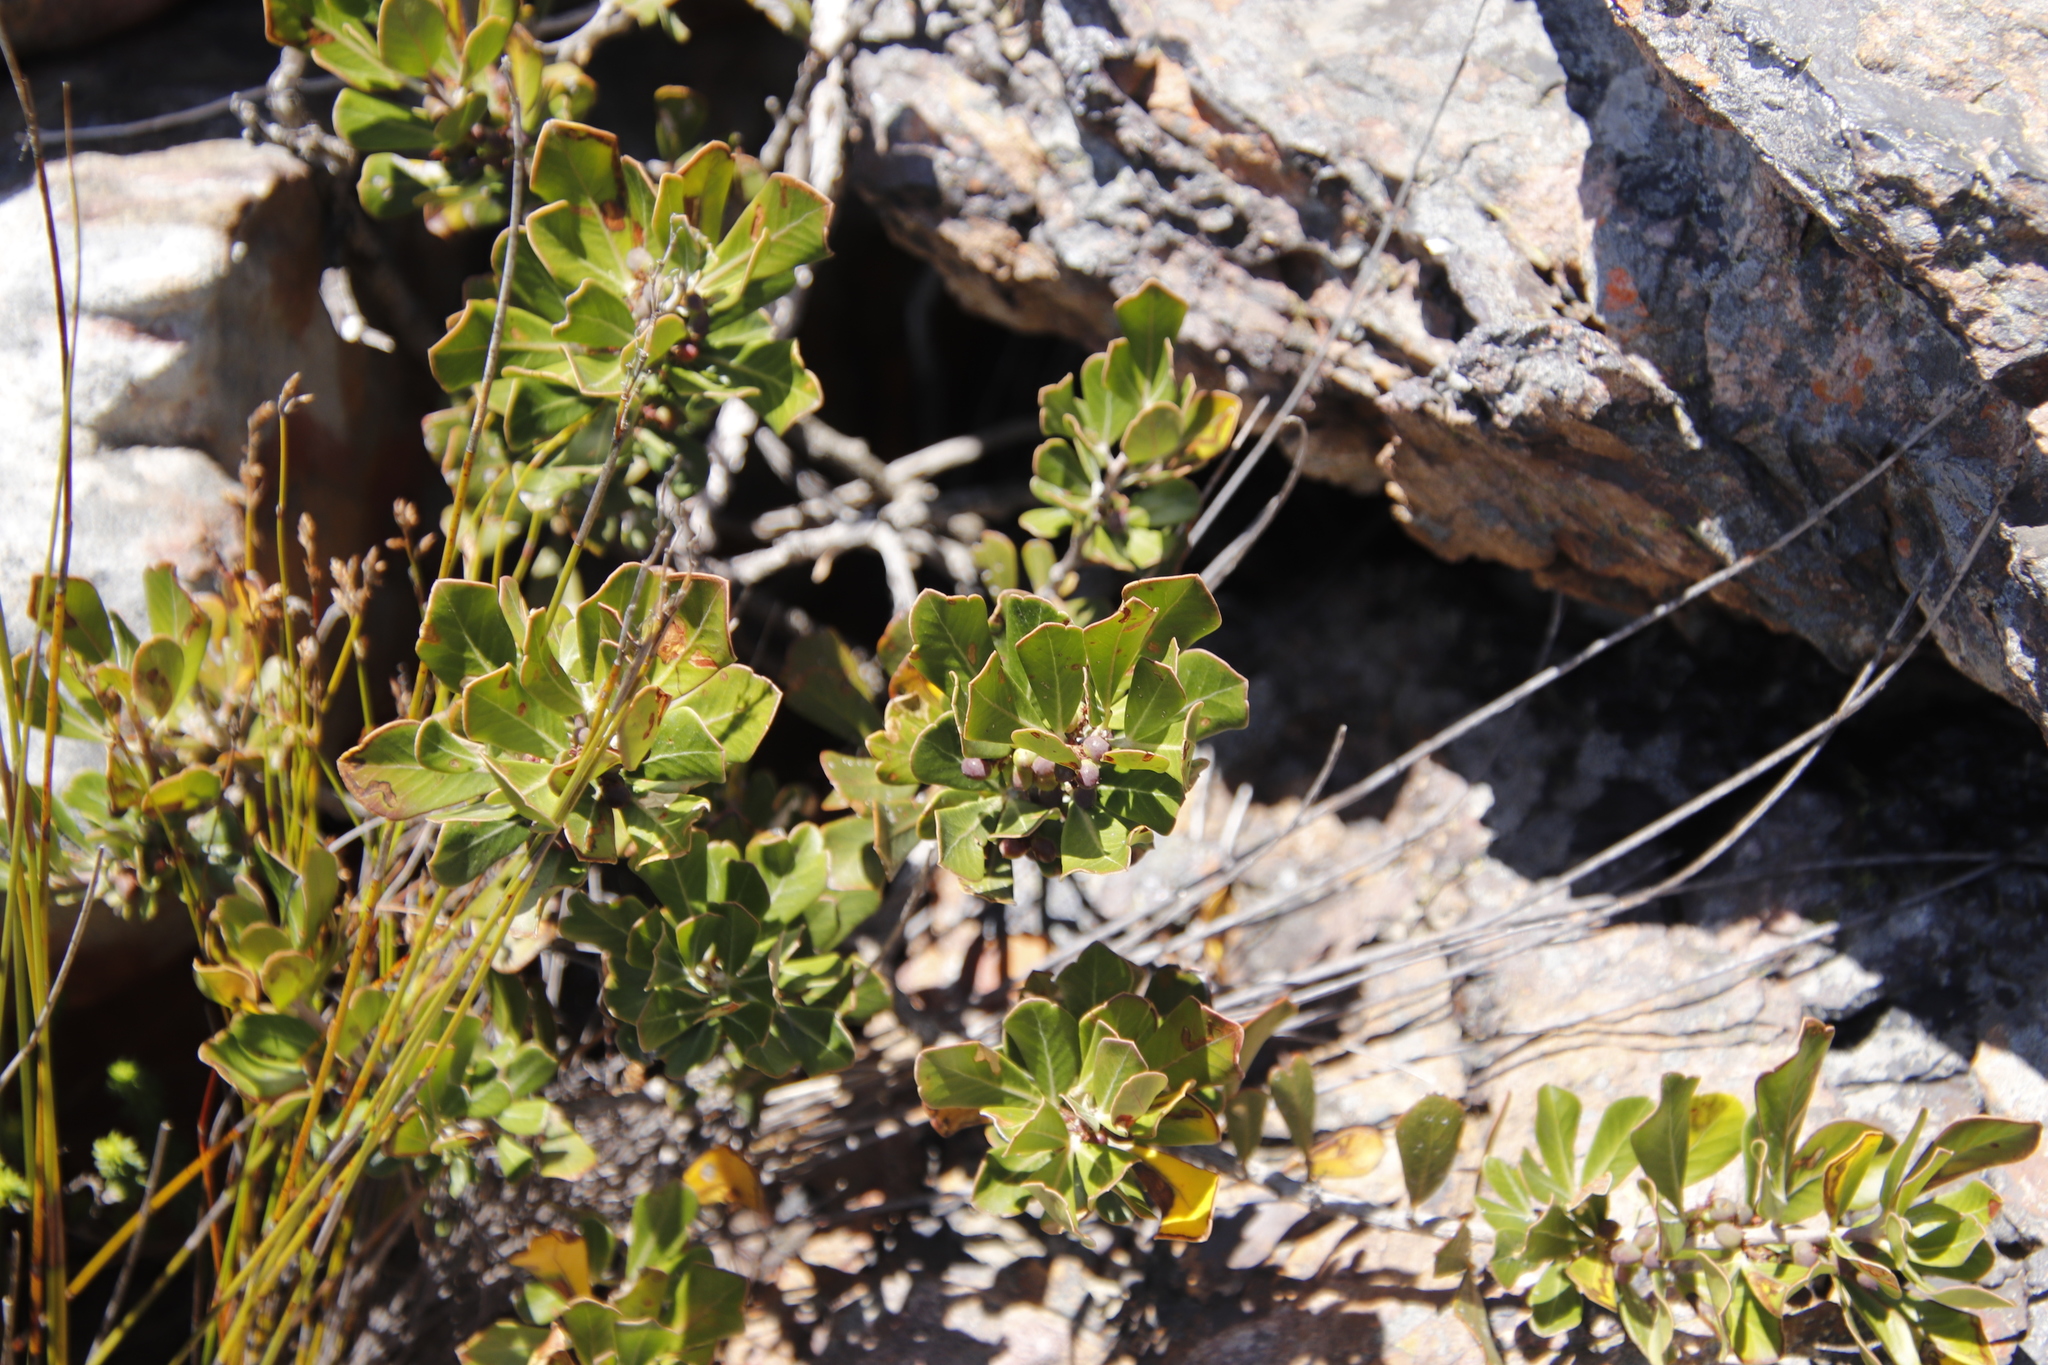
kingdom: Plantae
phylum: Tracheophyta
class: Magnoliopsida
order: Sapindales
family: Anacardiaceae
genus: Searsia
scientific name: Searsia scytophylla
